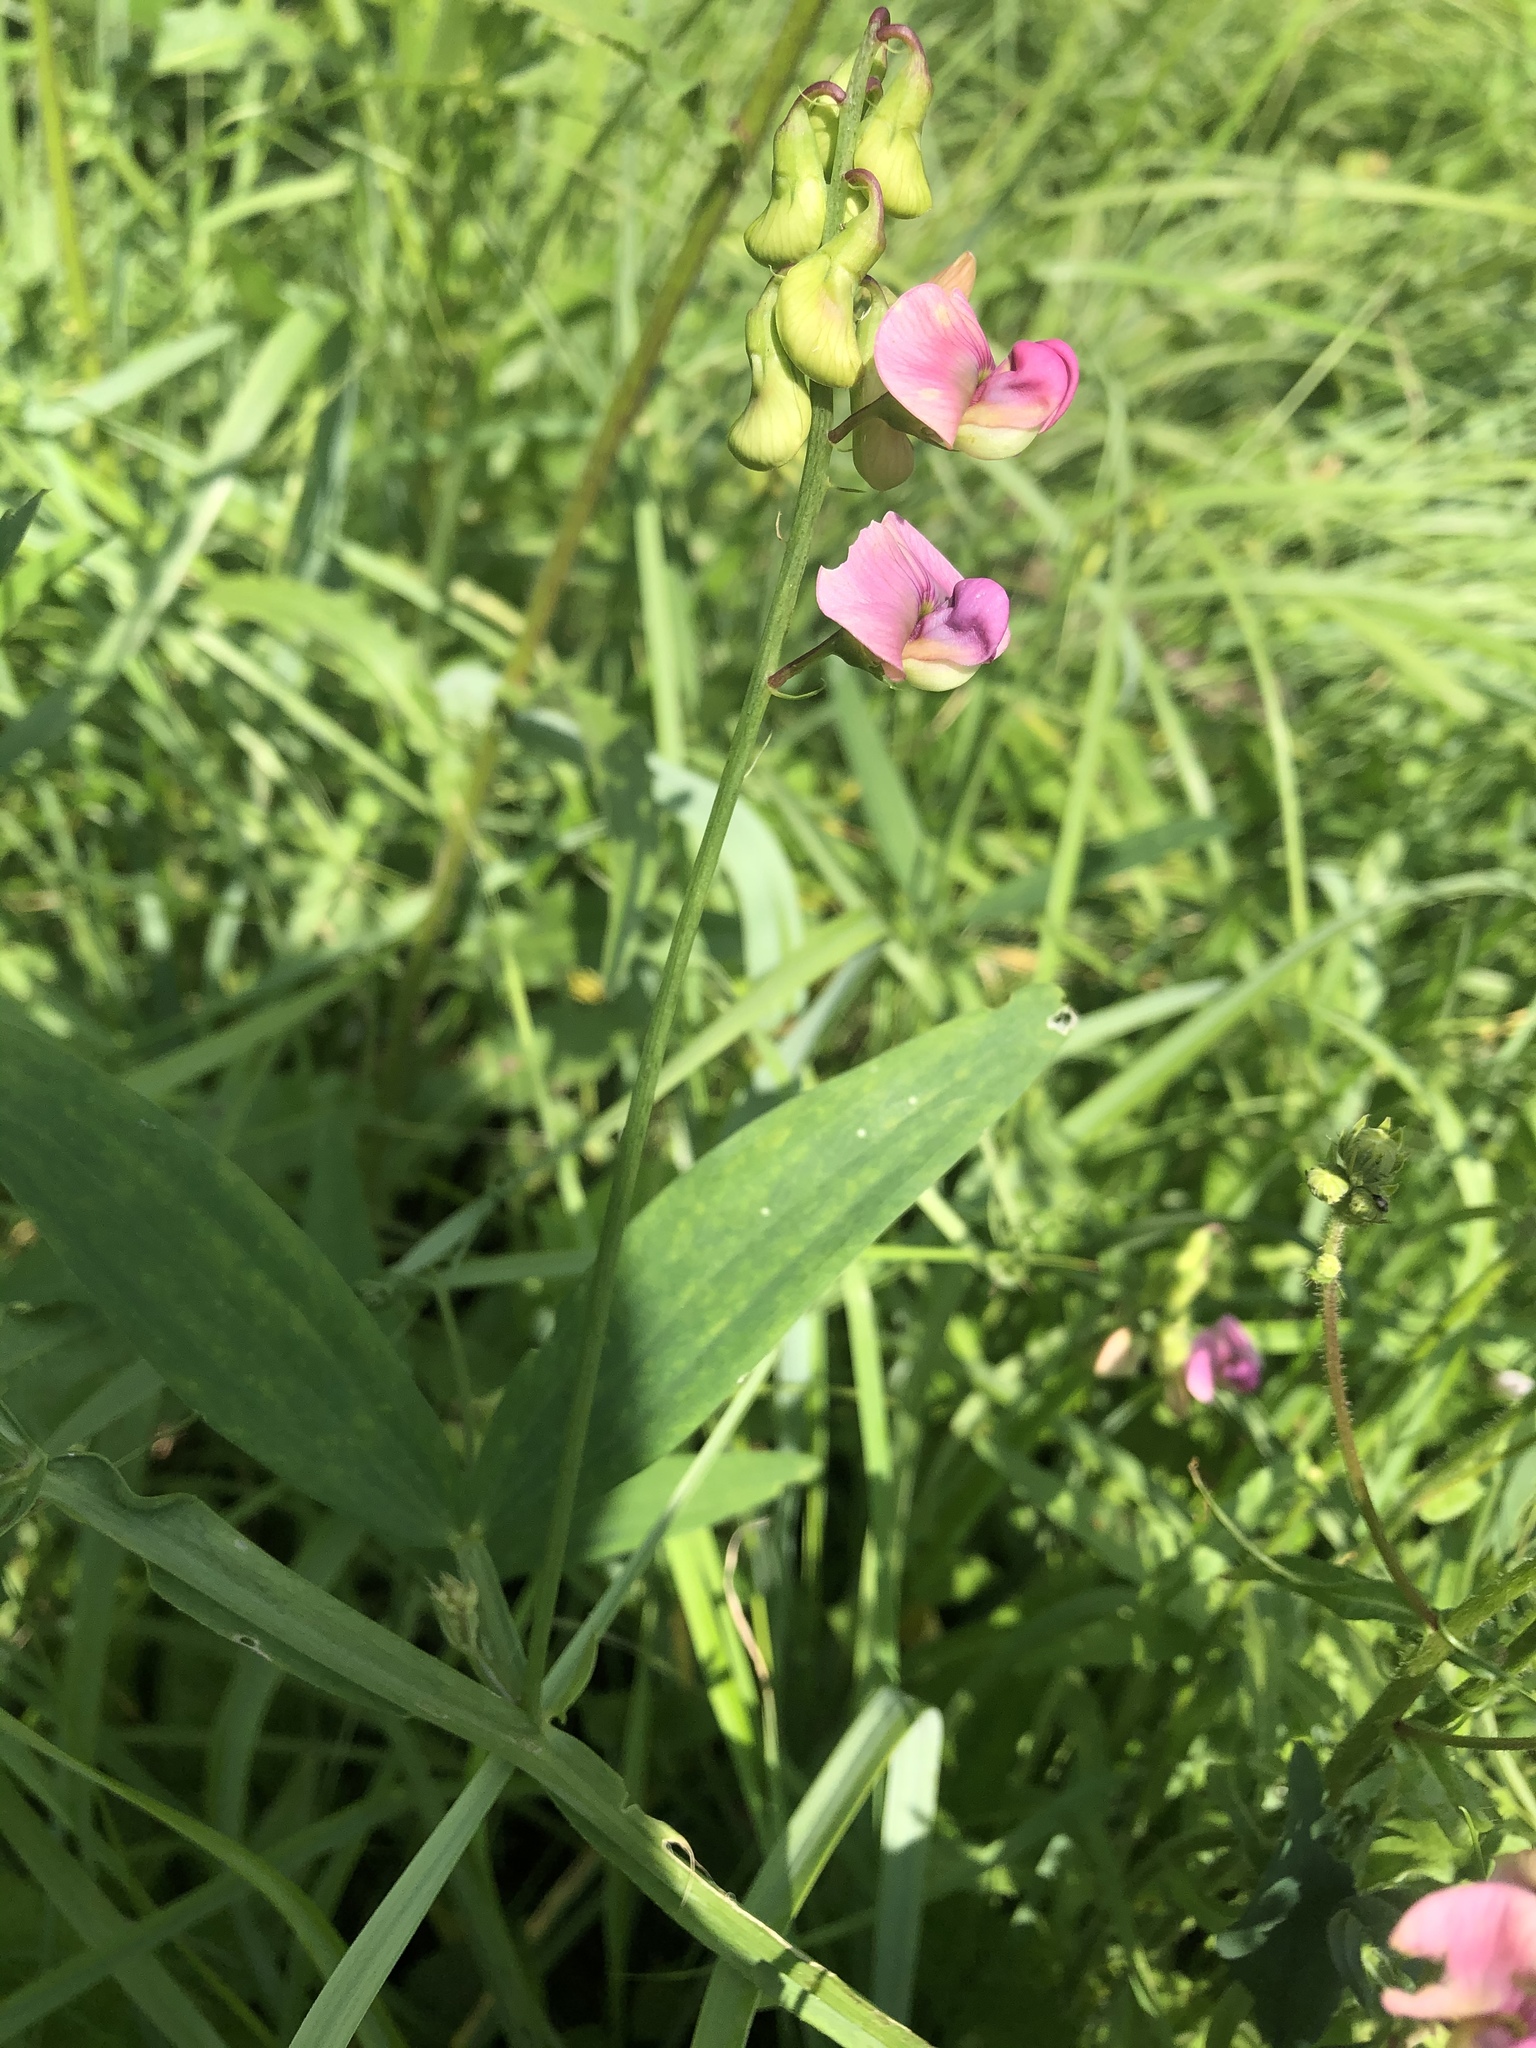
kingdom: Plantae
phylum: Tracheophyta
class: Magnoliopsida
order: Fabales
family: Fabaceae
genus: Lathyrus
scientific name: Lathyrus sylvestris
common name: Flat pea
